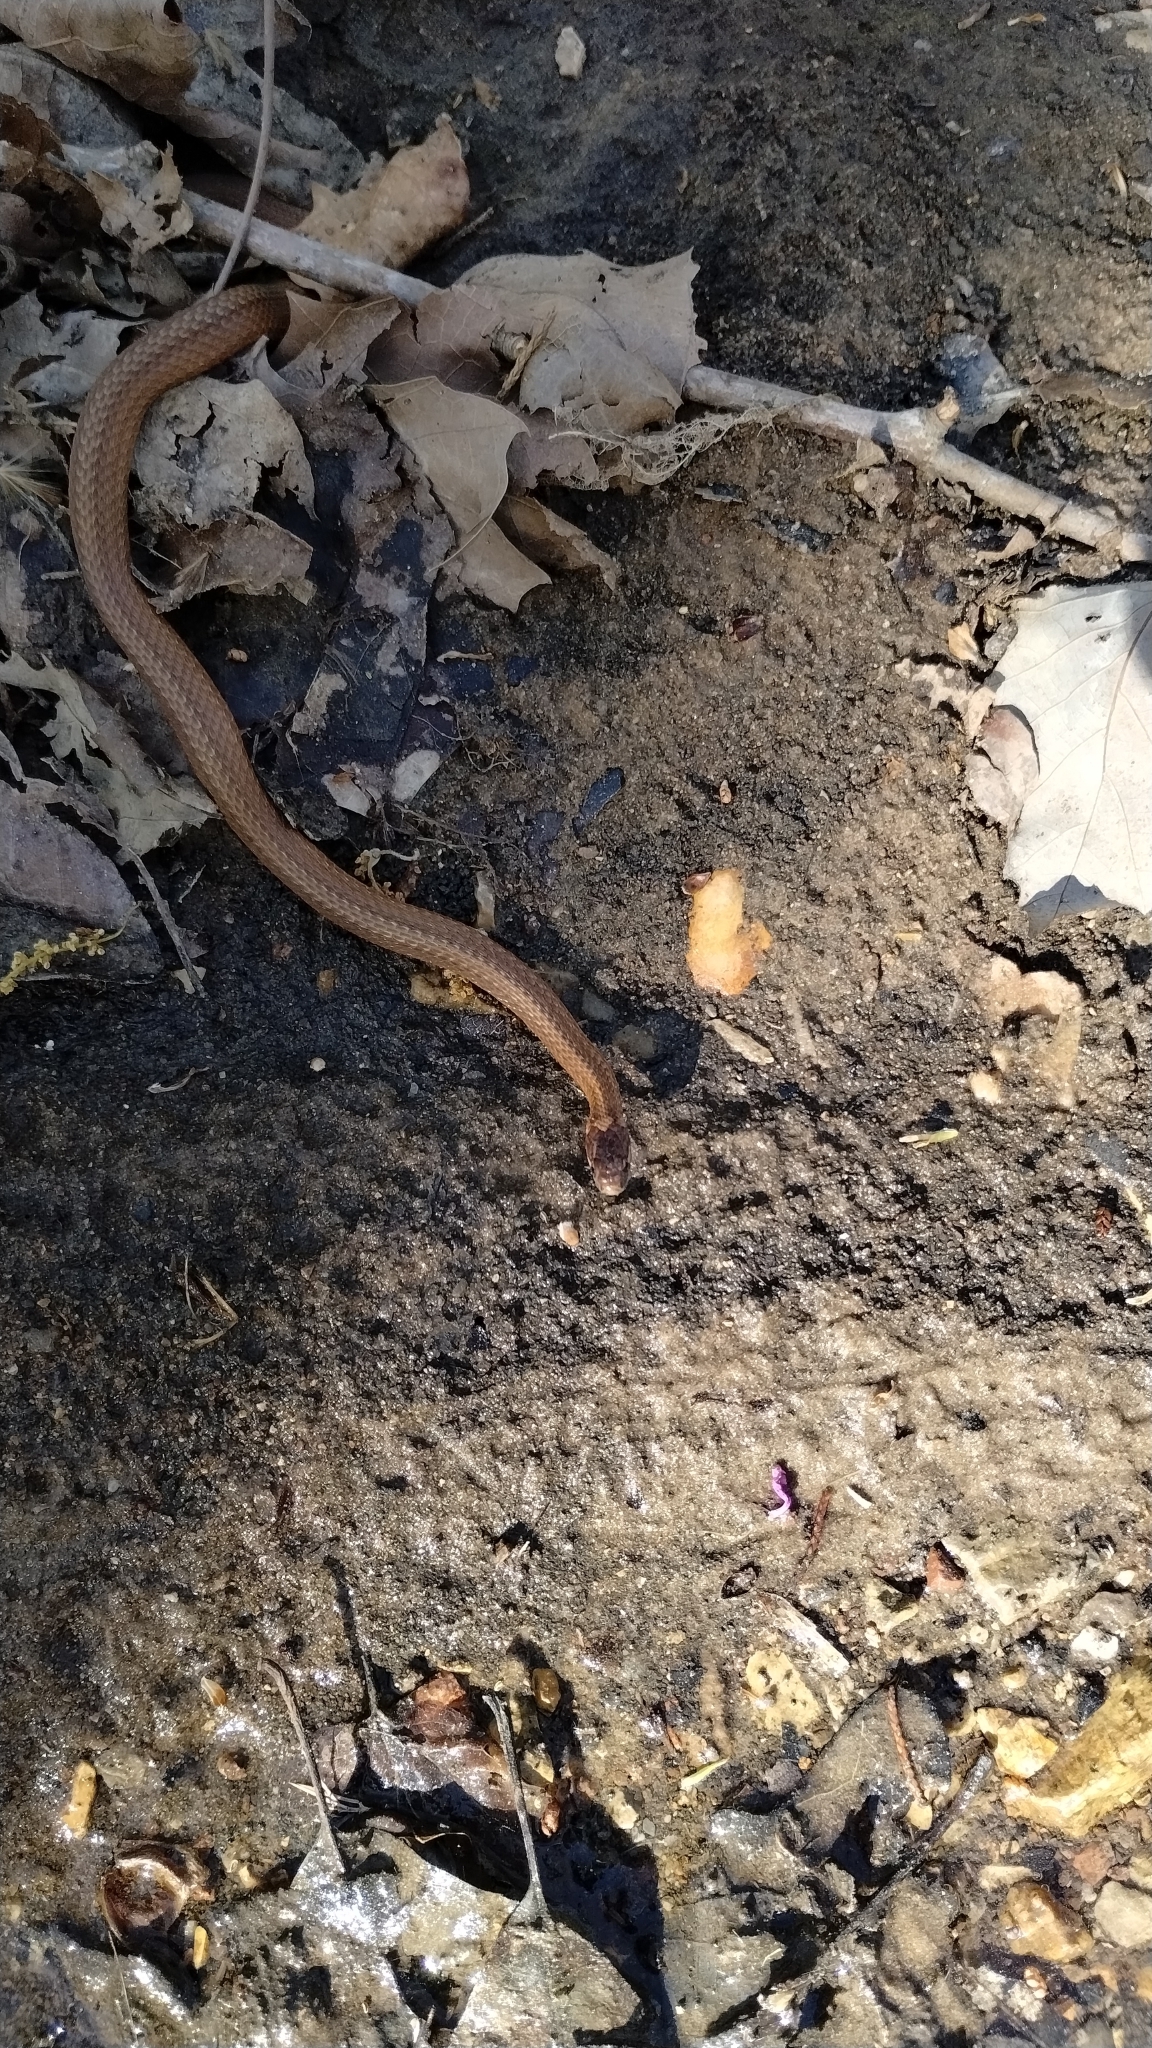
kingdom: Animalia
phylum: Chordata
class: Squamata
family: Colubridae
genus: Storeria
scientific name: Storeria occipitomaculata
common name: Redbelly snake
